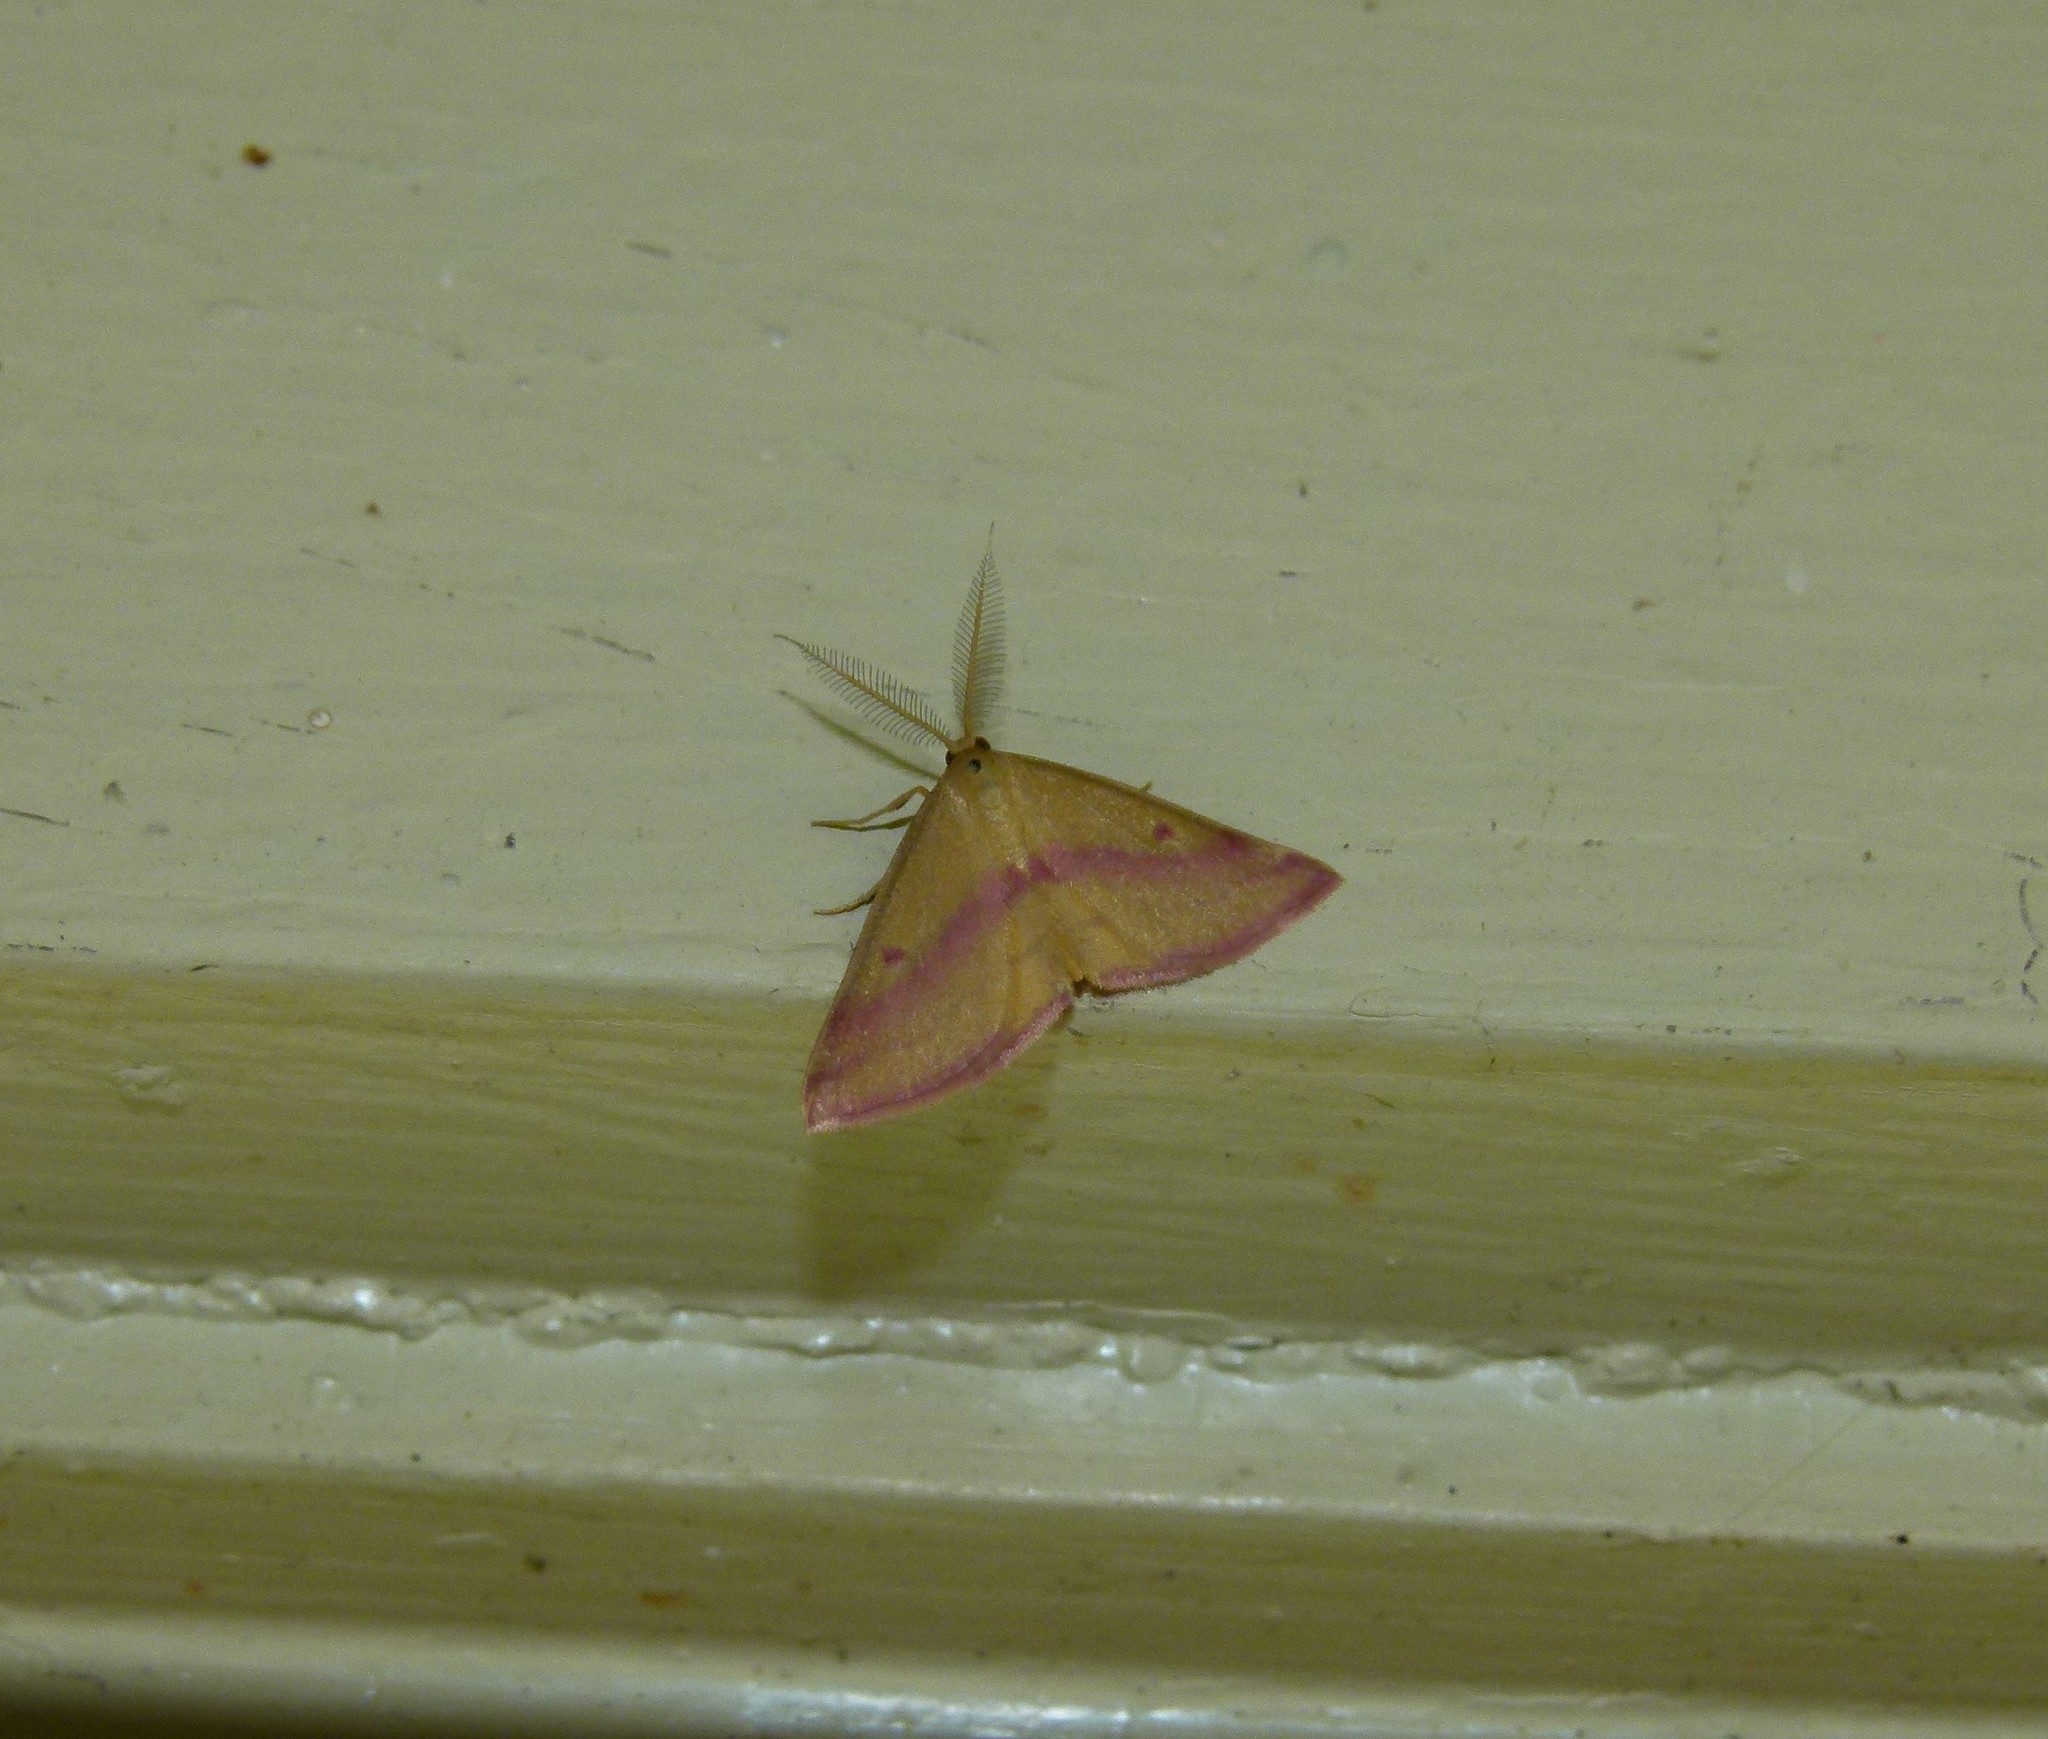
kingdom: Animalia
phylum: Arthropoda
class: Insecta
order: Lepidoptera
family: Geometridae
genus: Haematopis
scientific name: Haematopis grataria
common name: Chickweed geometer
